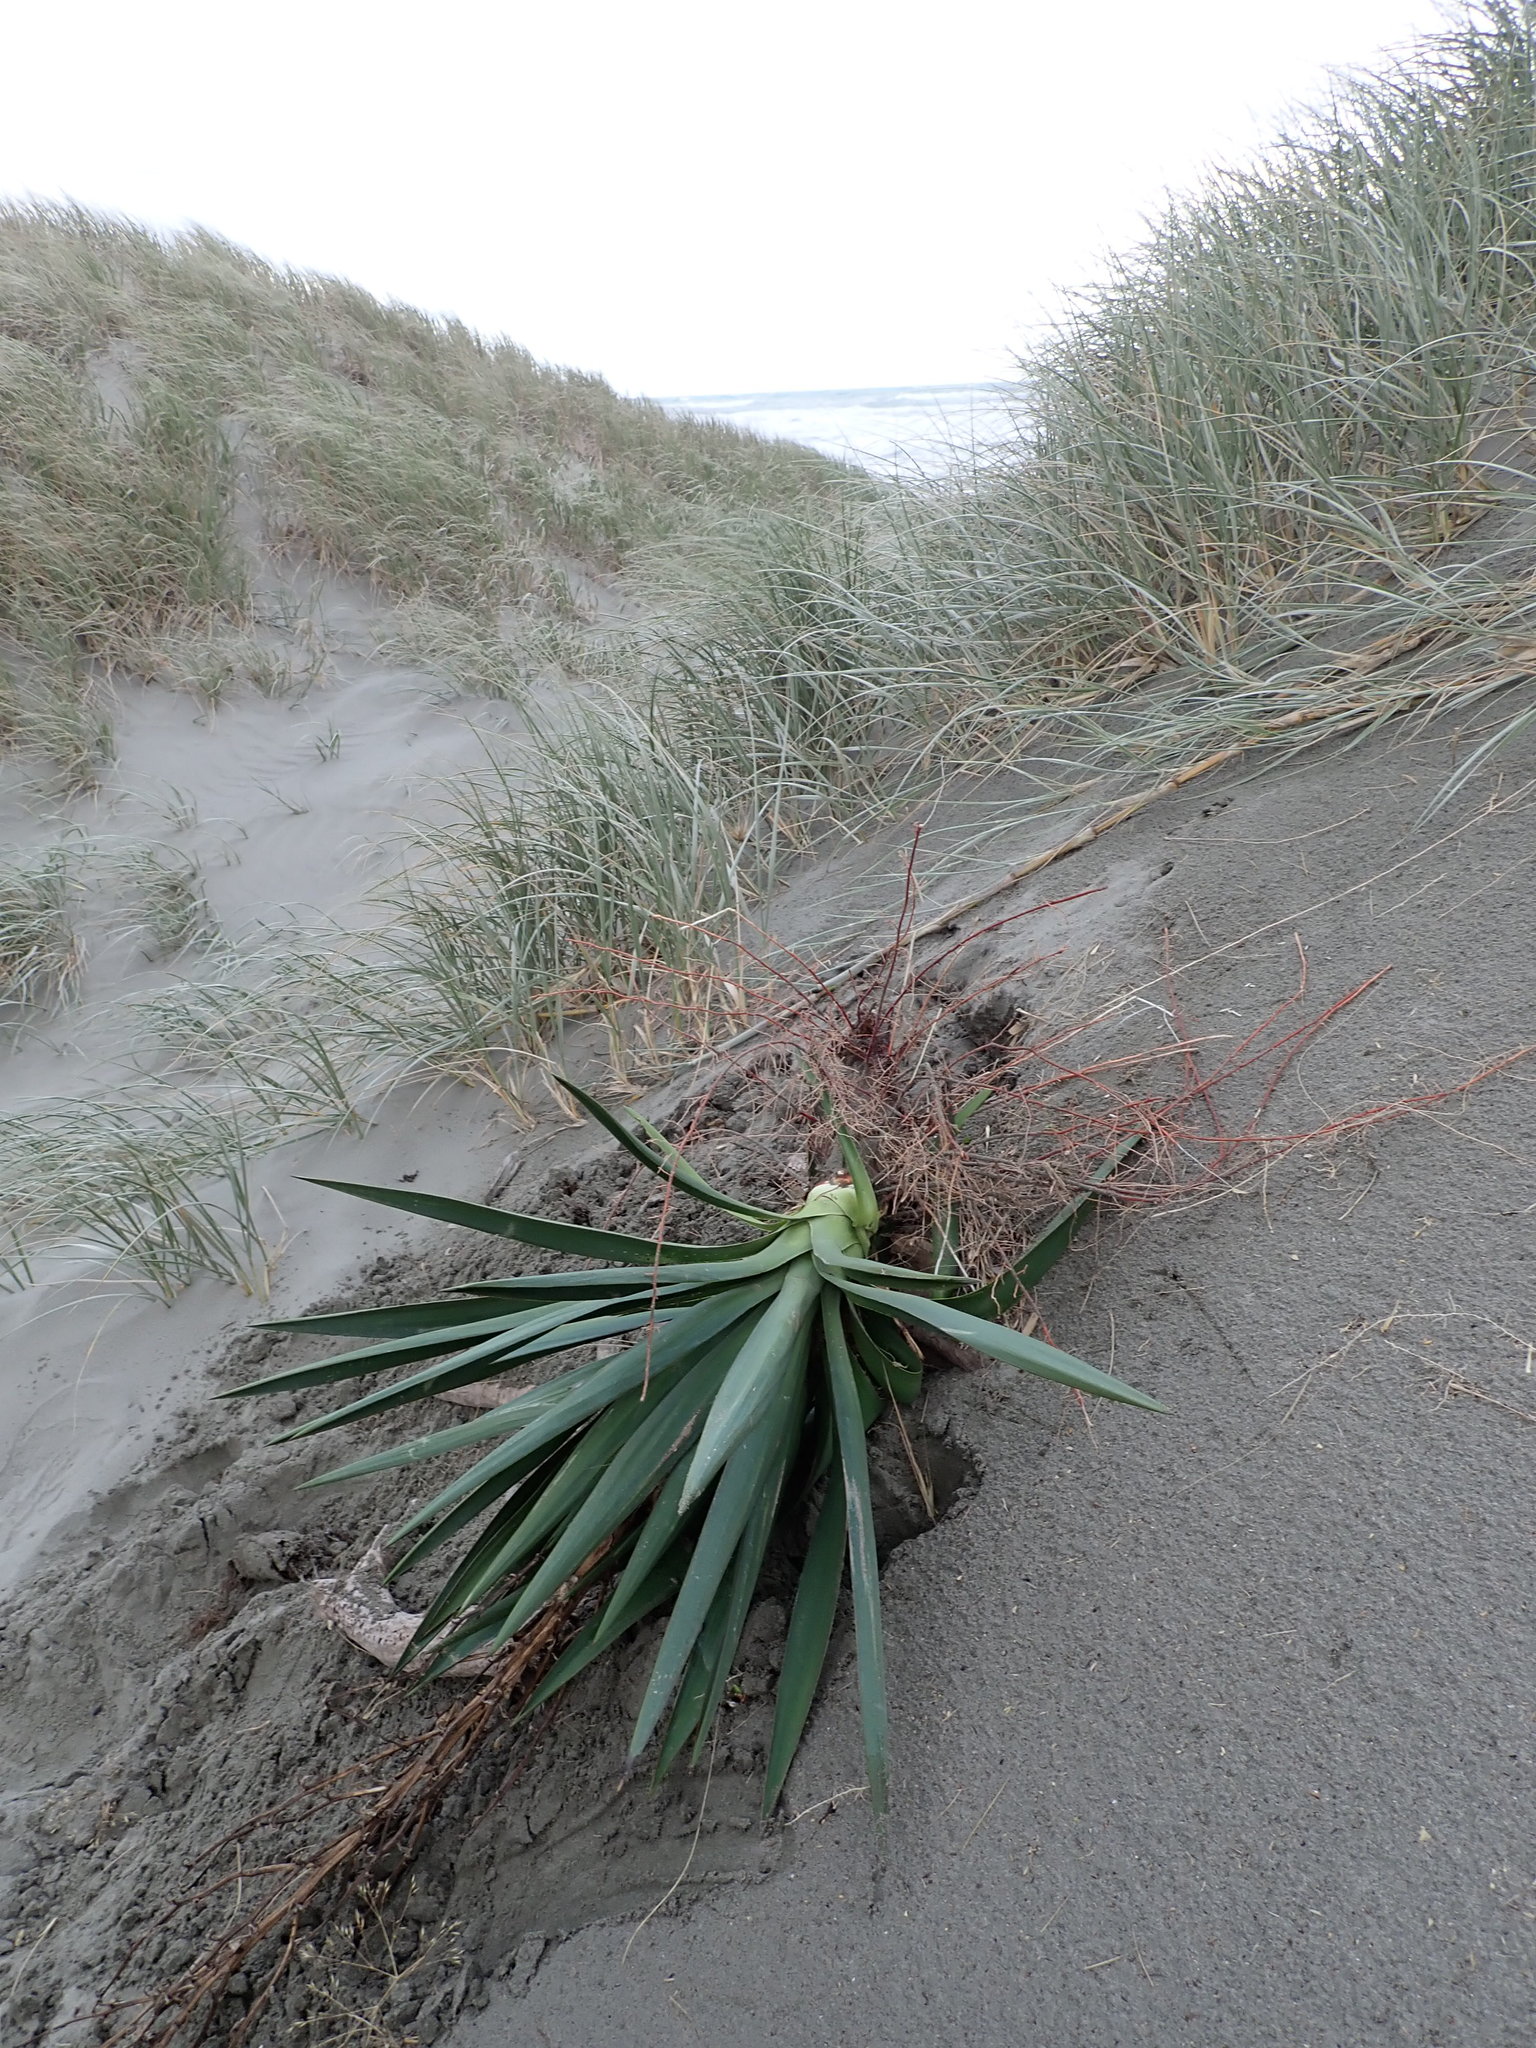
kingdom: Plantae
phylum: Tracheophyta
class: Liliopsida
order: Asparagales
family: Asparagaceae
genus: Yucca
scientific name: Yucca gloriosa
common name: Spanish-dagger
